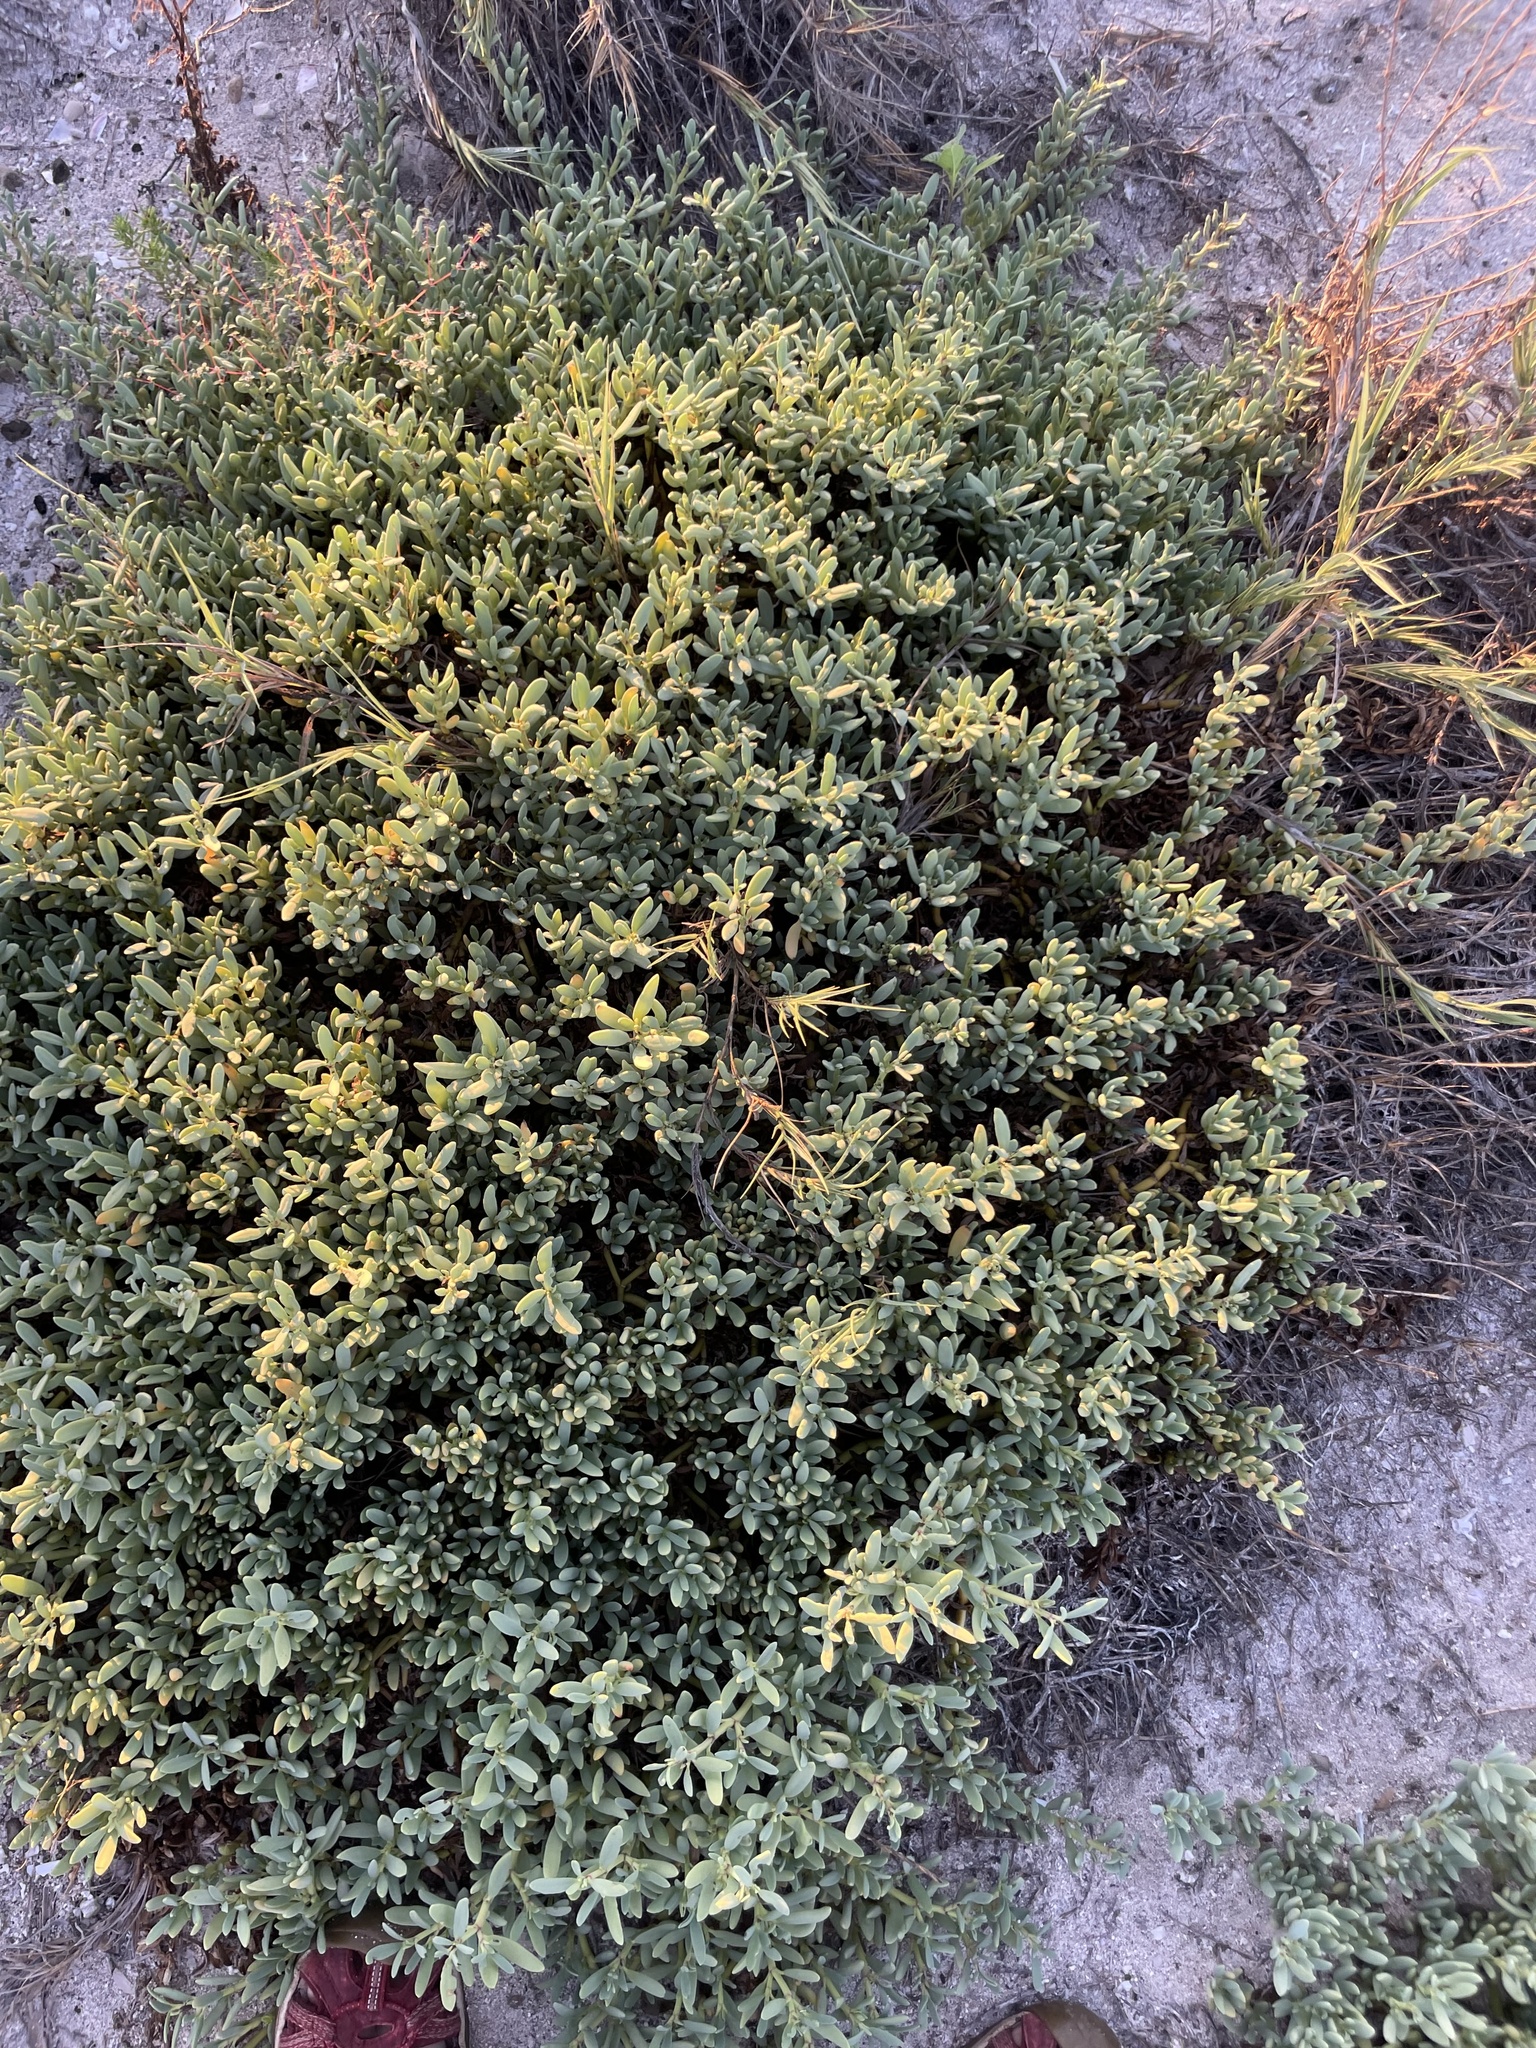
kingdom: Plantae
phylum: Tracheophyta
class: Magnoliopsida
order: Caryophyllales
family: Aizoaceae
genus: Sesuvium
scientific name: Sesuvium portulacastrum
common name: Sea-purslane
